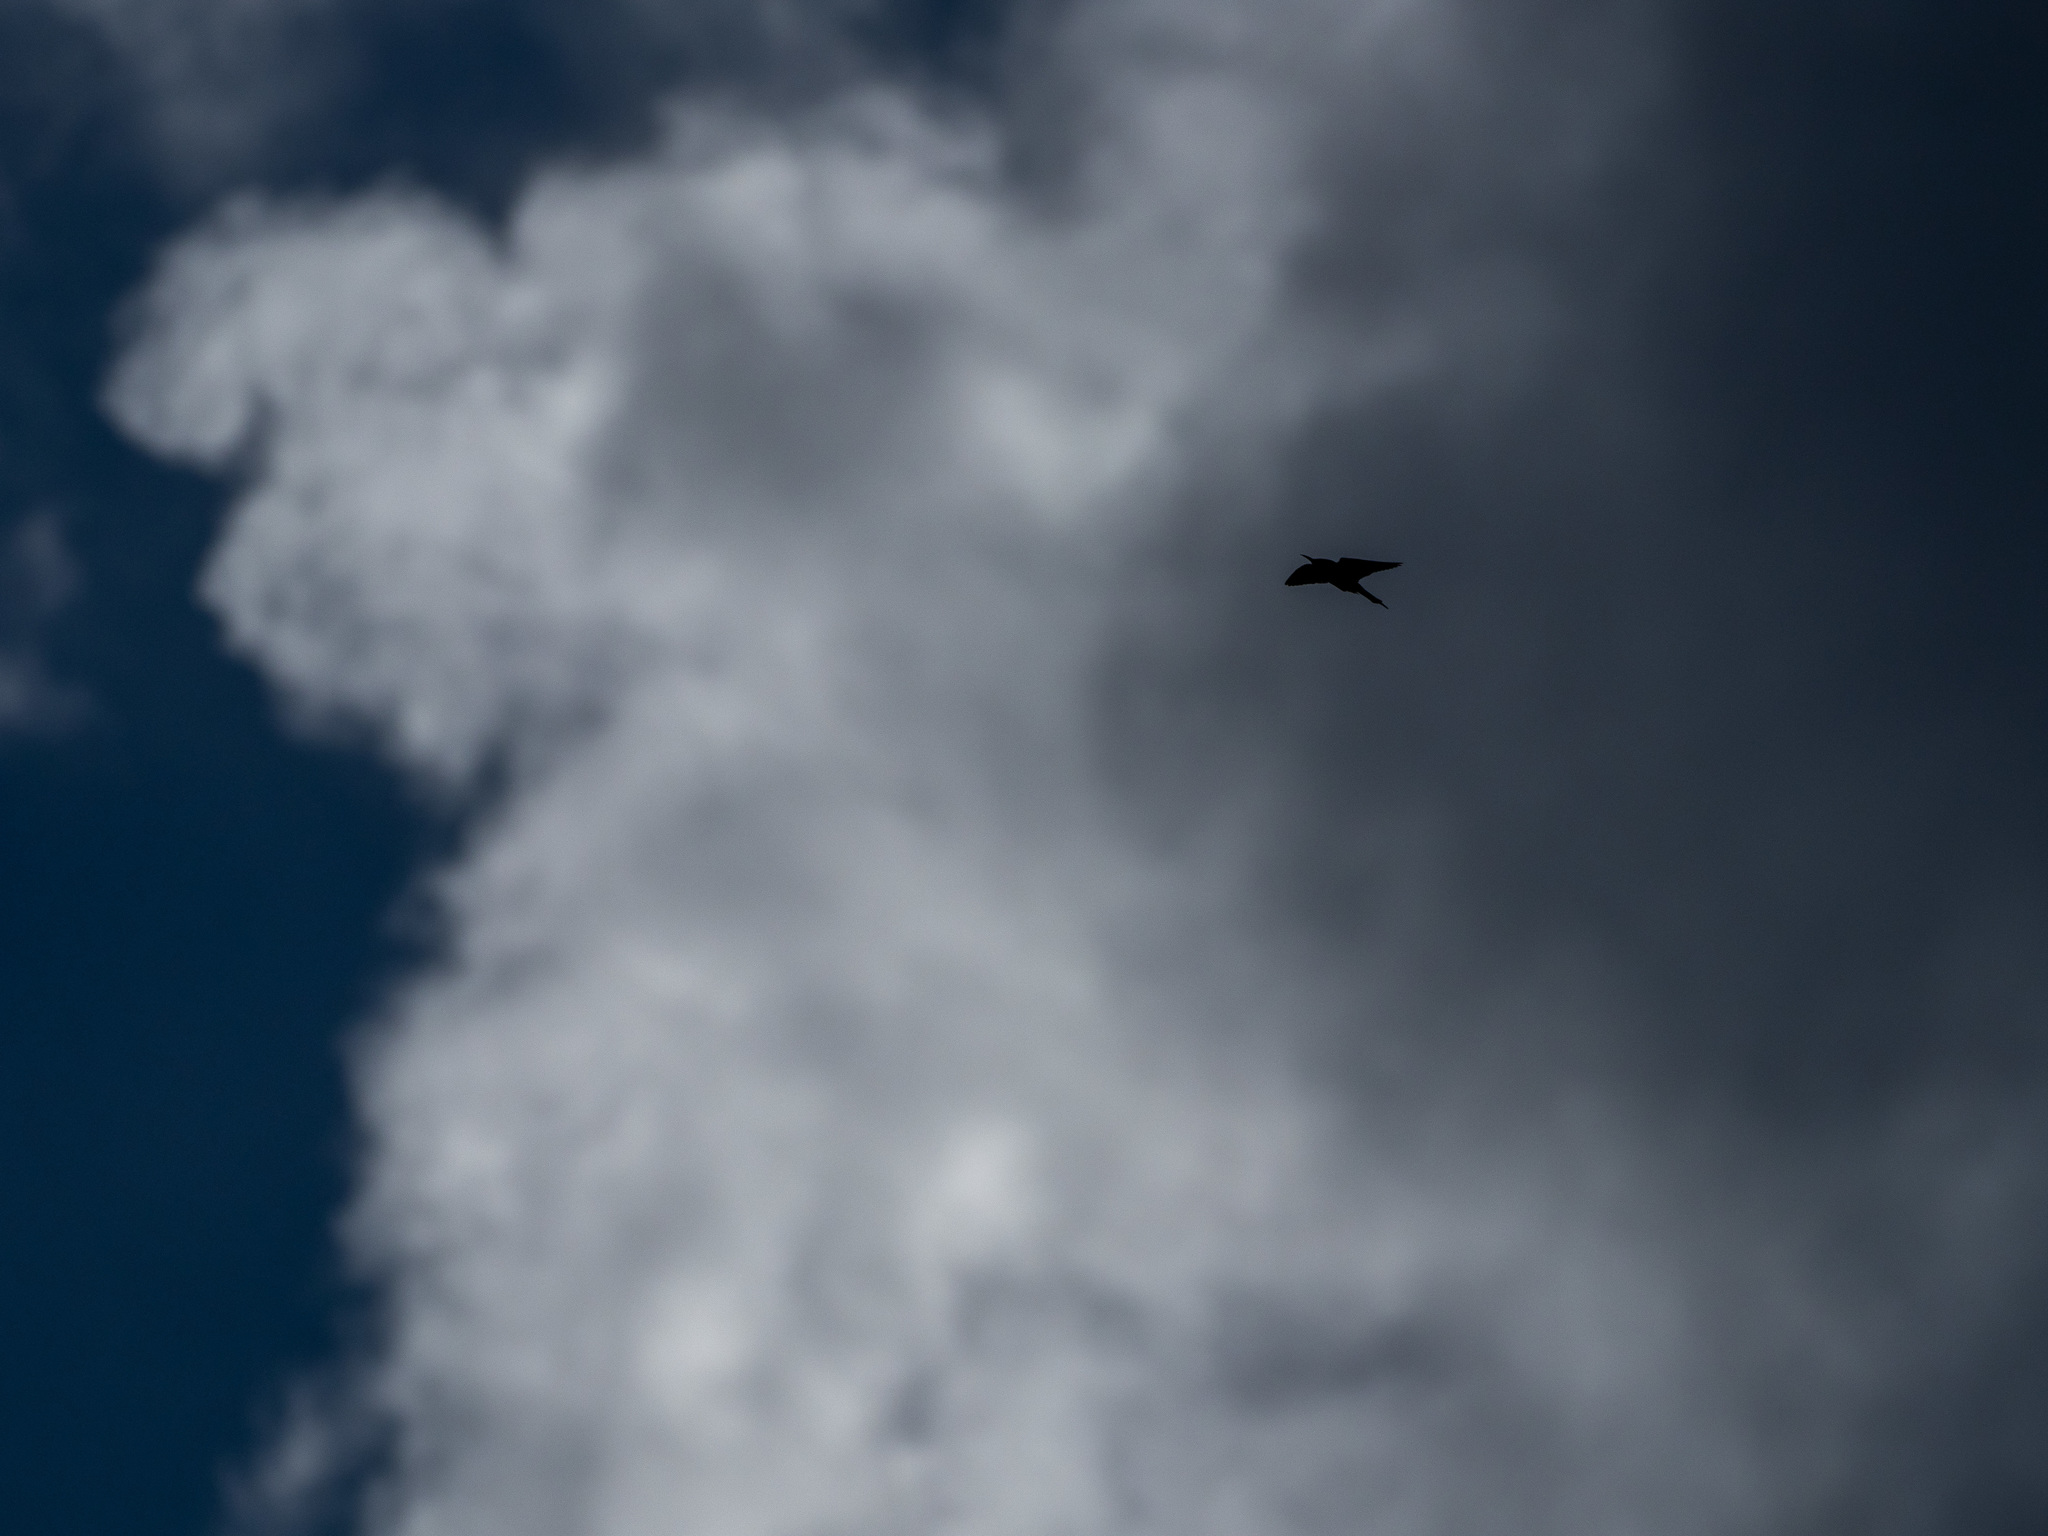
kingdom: Animalia
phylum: Chordata
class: Aves
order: Coraciiformes
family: Meropidae
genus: Merops
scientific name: Merops apiaster
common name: European bee-eater
